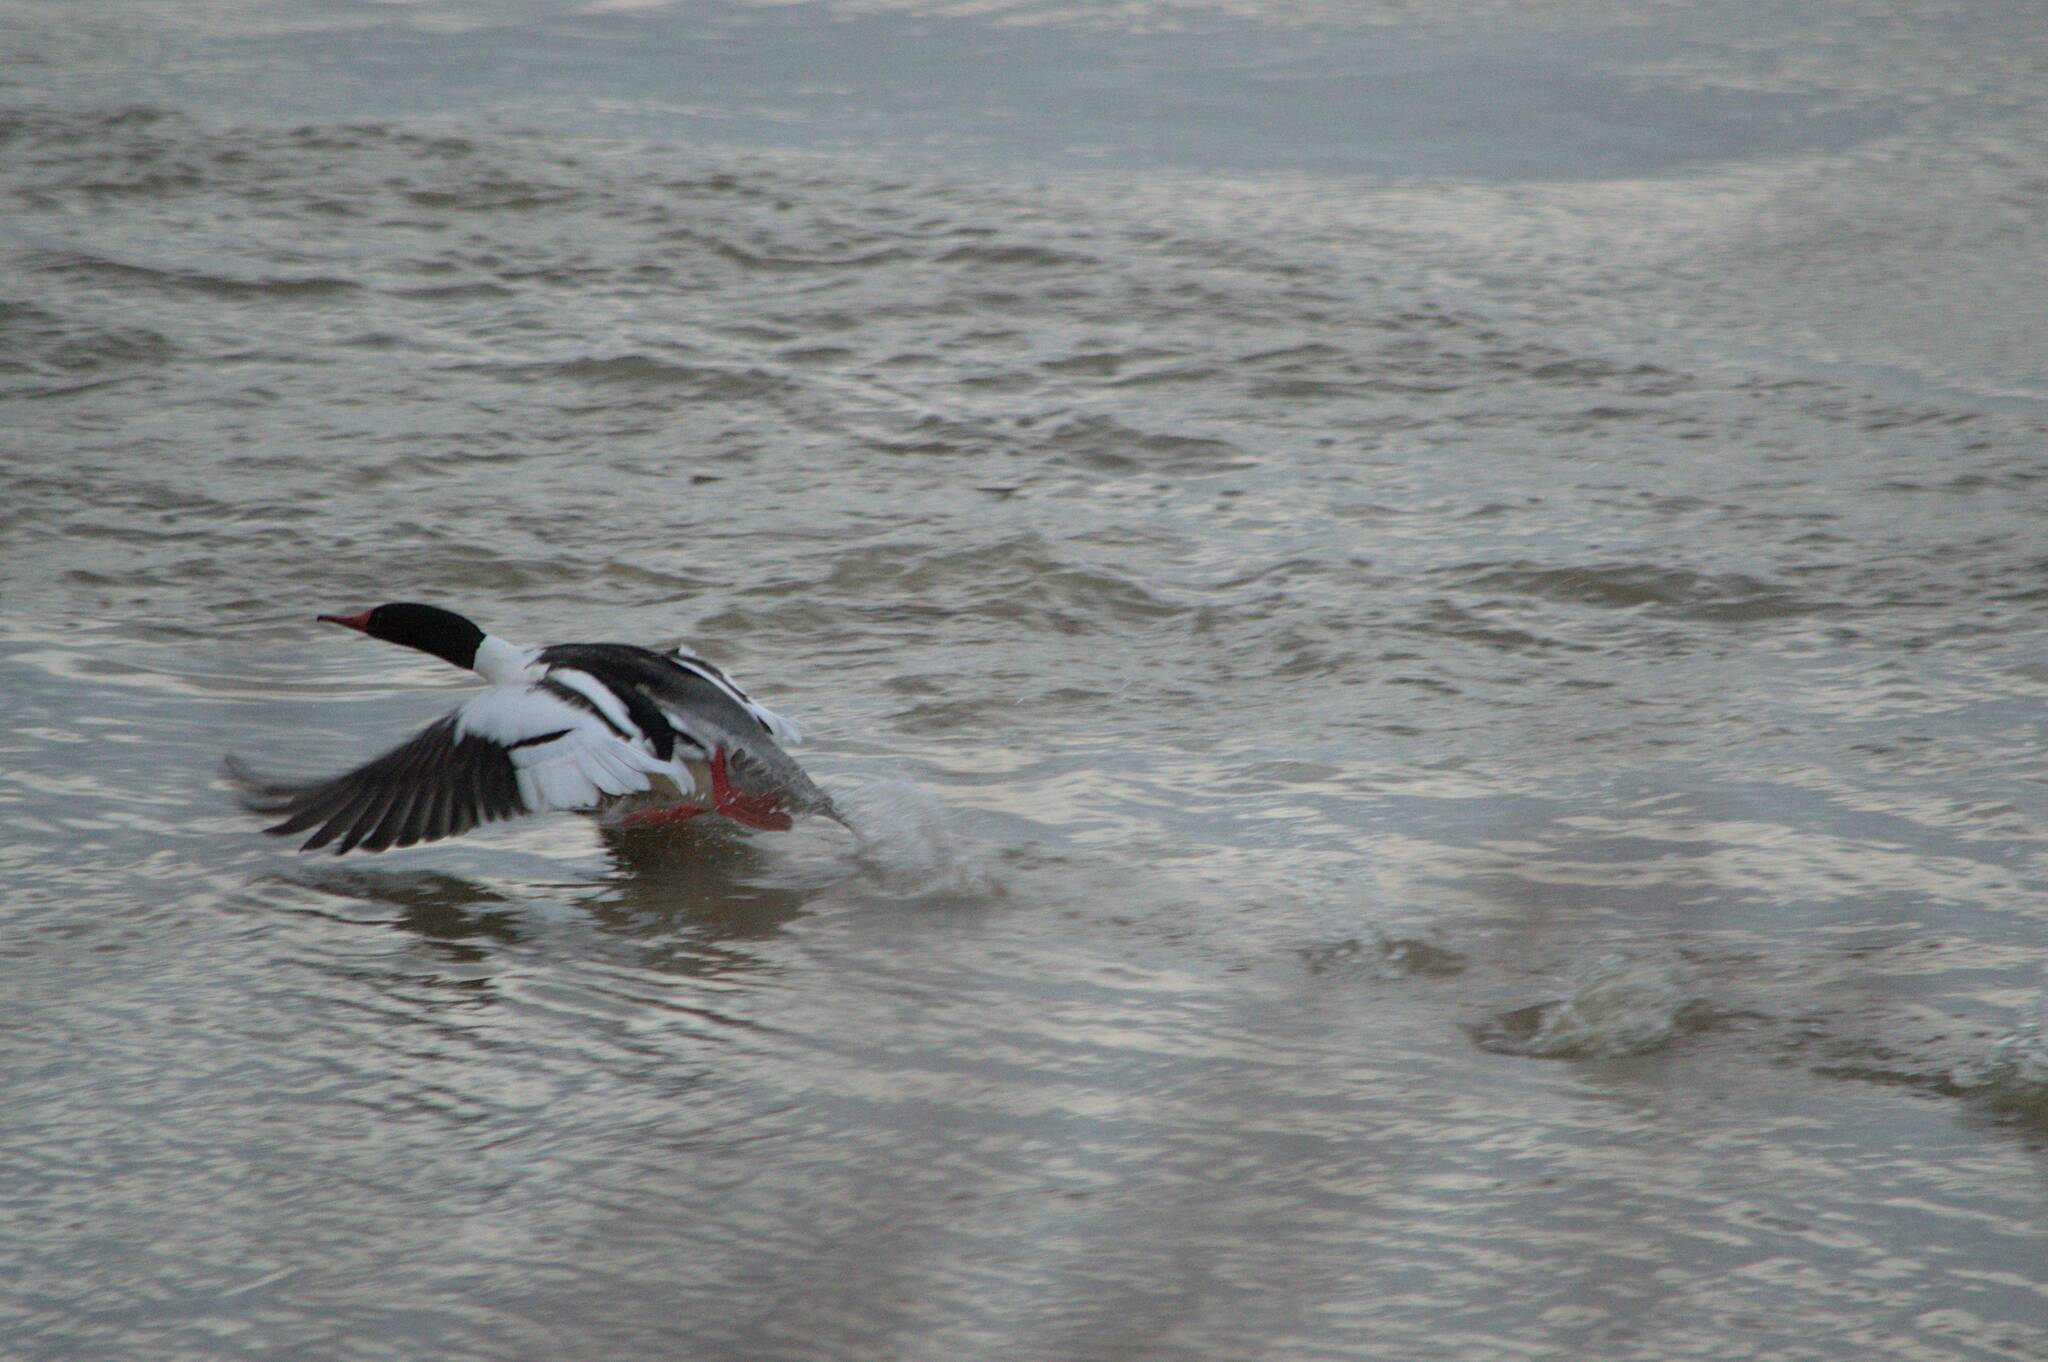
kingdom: Animalia
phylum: Chordata
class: Aves
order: Anseriformes
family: Anatidae
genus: Mergus
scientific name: Mergus merganser
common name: Common merganser
